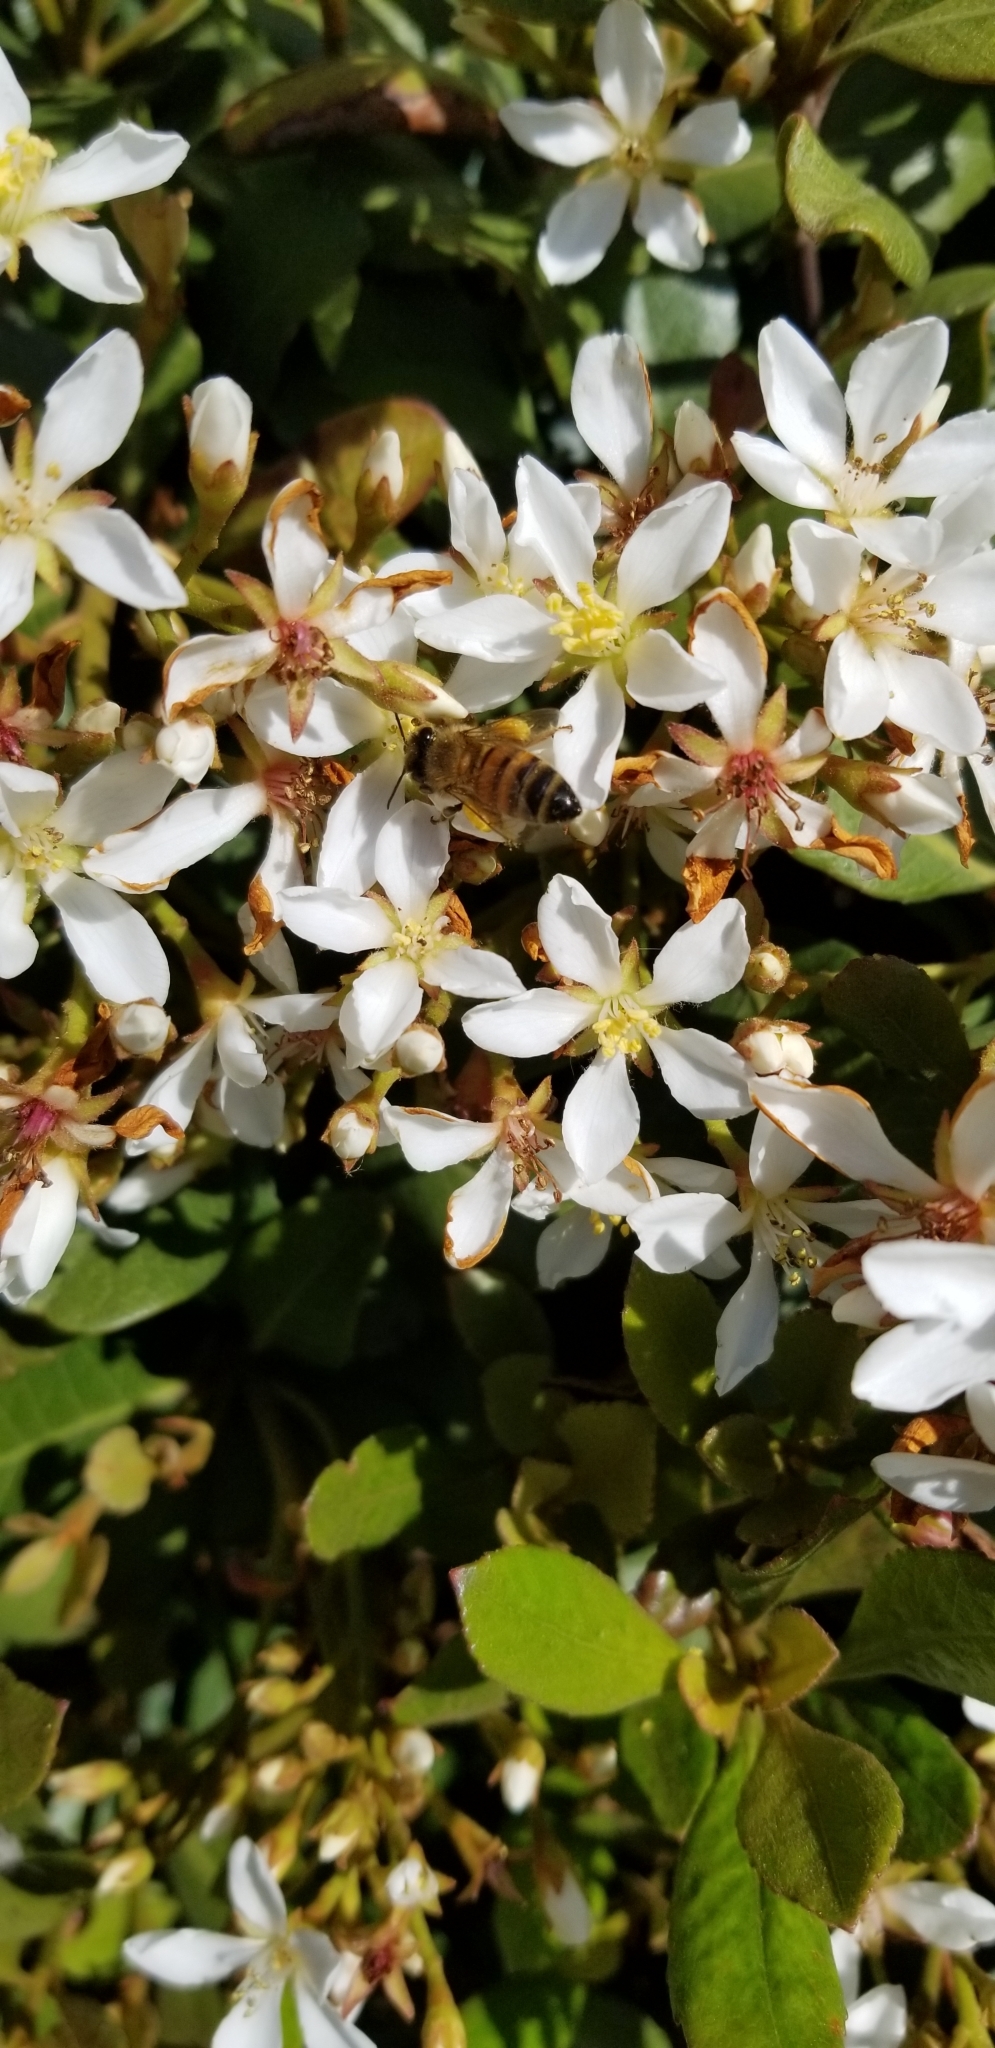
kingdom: Animalia
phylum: Arthropoda
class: Insecta
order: Hymenoptera
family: Apidae
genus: Apis
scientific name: Apis mellifera
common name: Honey bee
